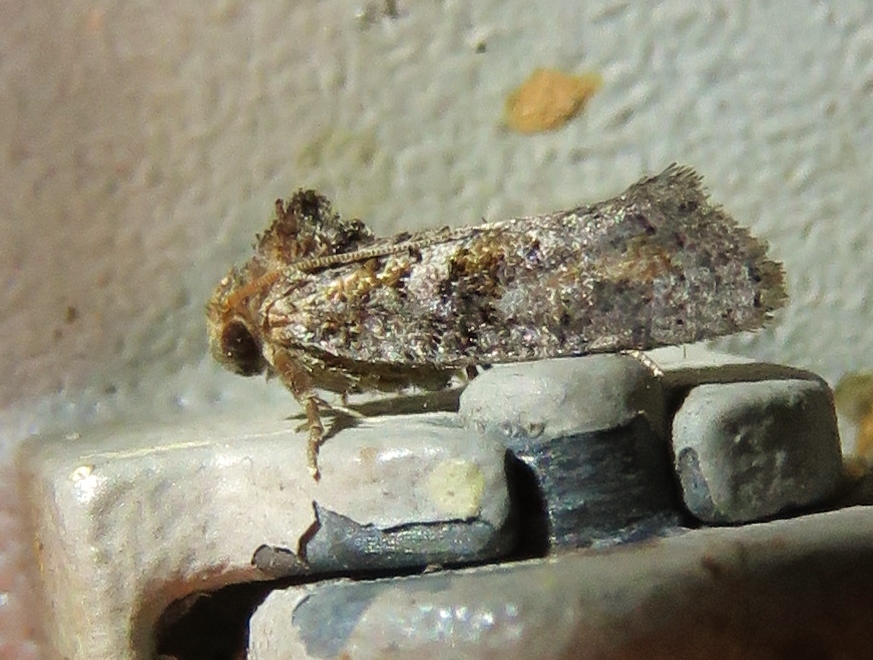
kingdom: Animalia
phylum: Arthropoda
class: Insecta
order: Lepidoptera
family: Tineidae
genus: Acrolophus
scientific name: Acrolophus piger
